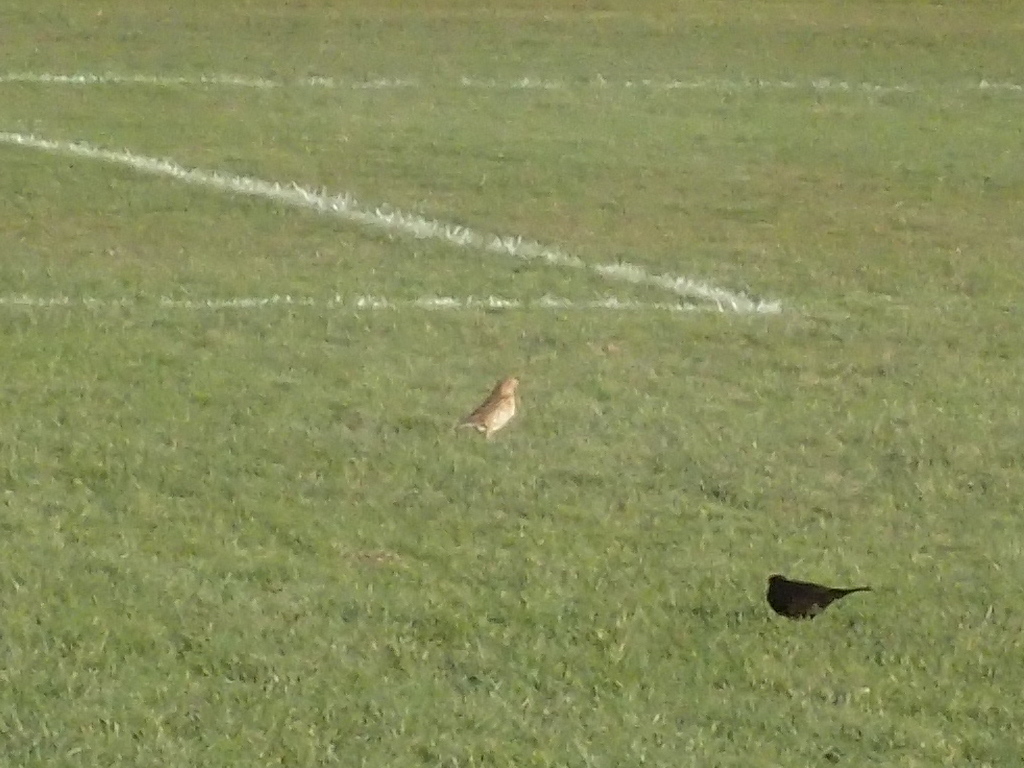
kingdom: Animalia
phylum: Chordata
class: Aves
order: Passeriformes
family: Turdidae
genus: Turdus
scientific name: Turdus philomelos
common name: Song thrush
